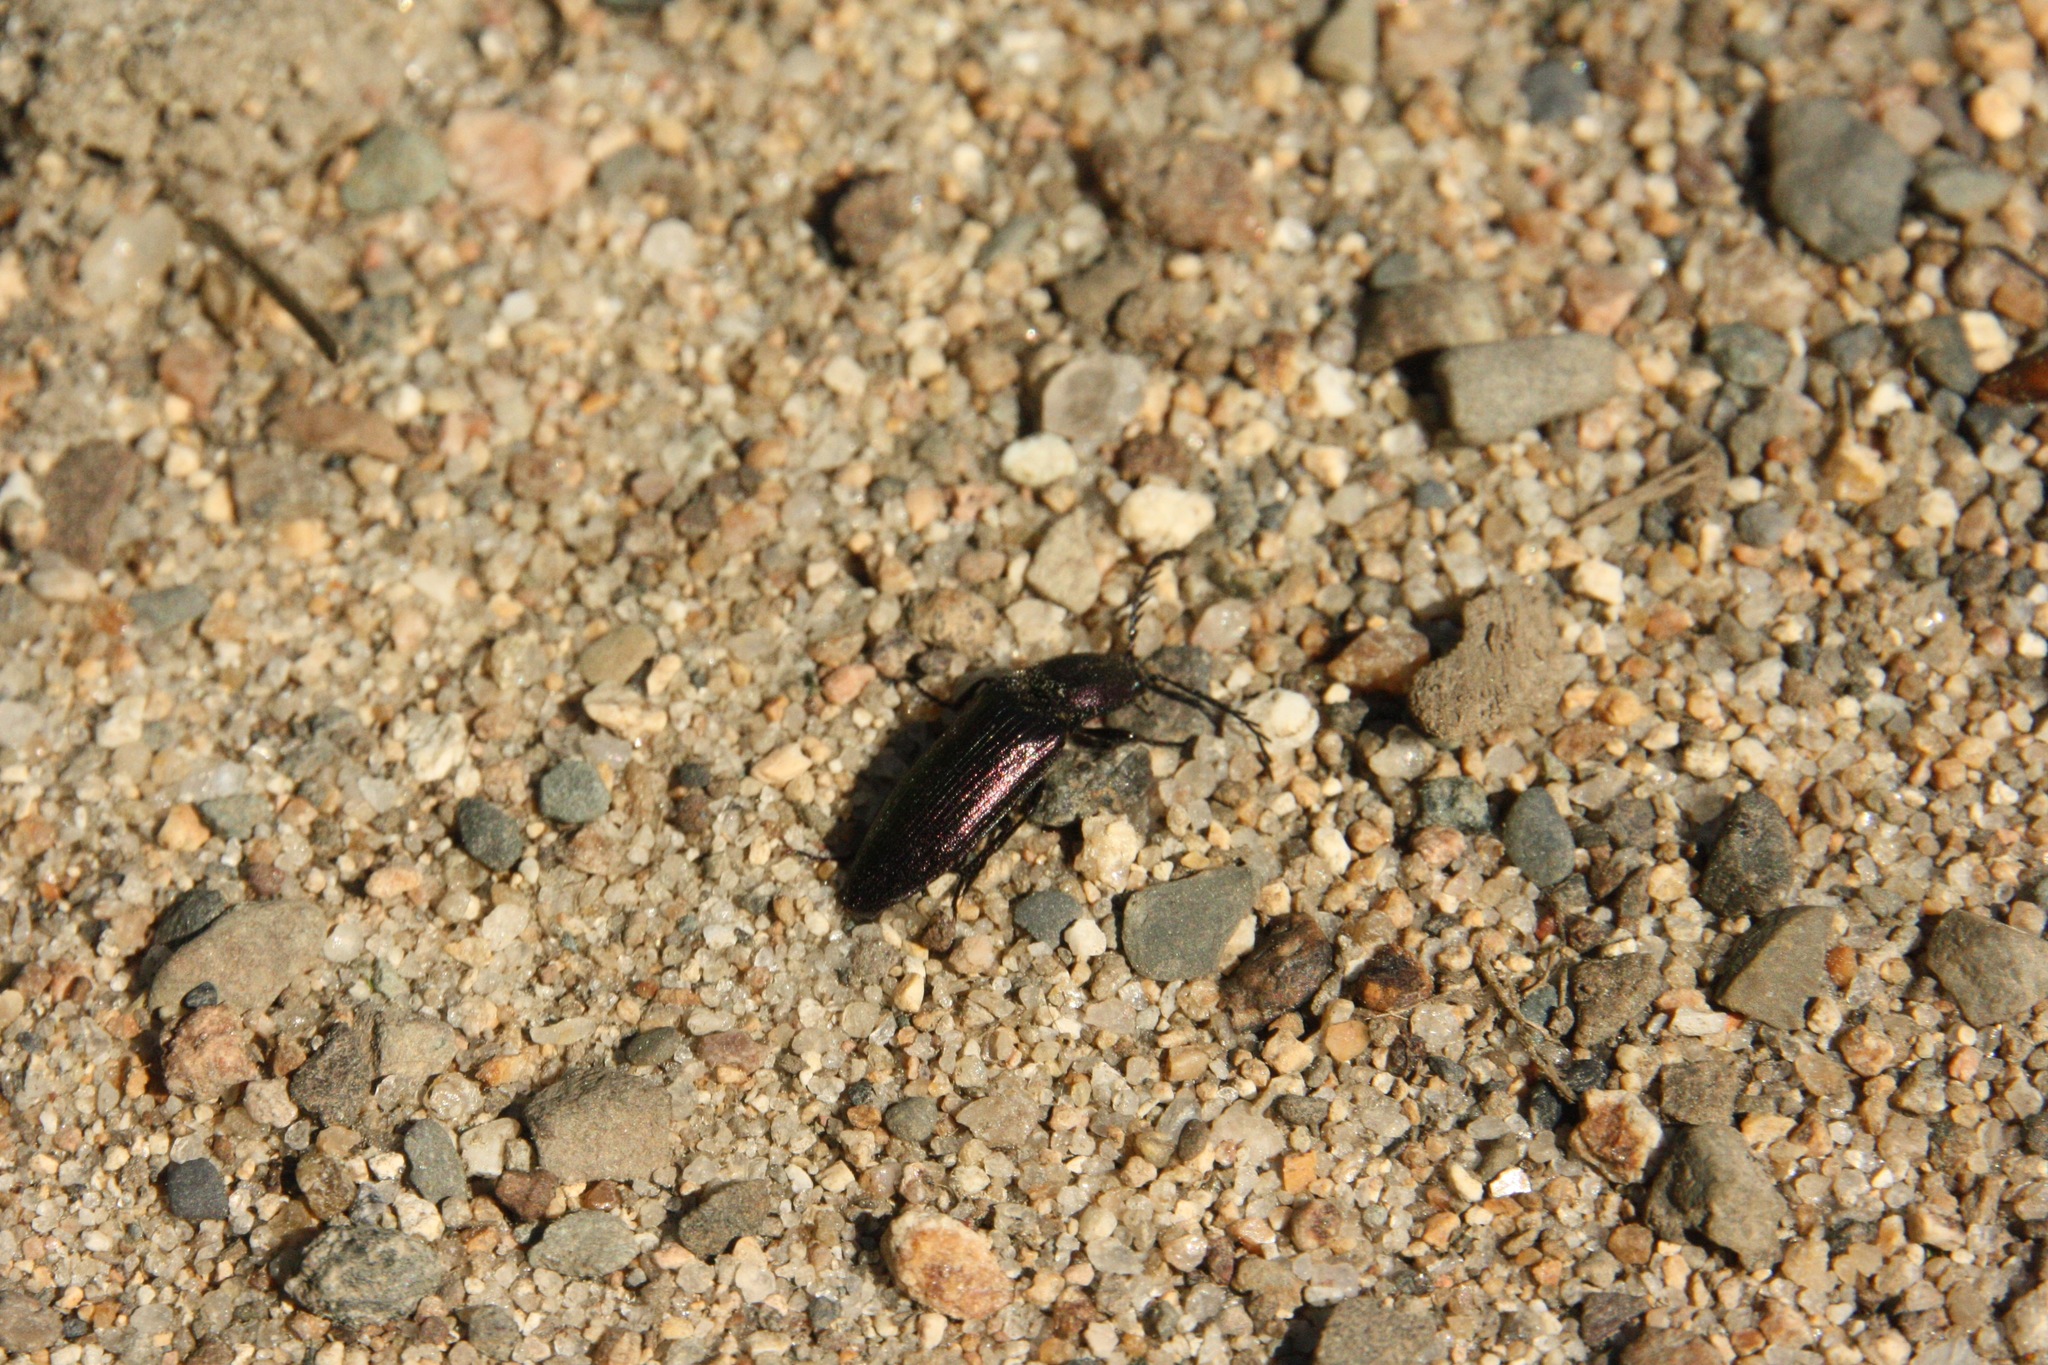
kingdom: Animalia
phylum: Arthropoda
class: Insecta
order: Coleoptera
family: Elateridae
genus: Ctenicera
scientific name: Ctenicera cuprea
